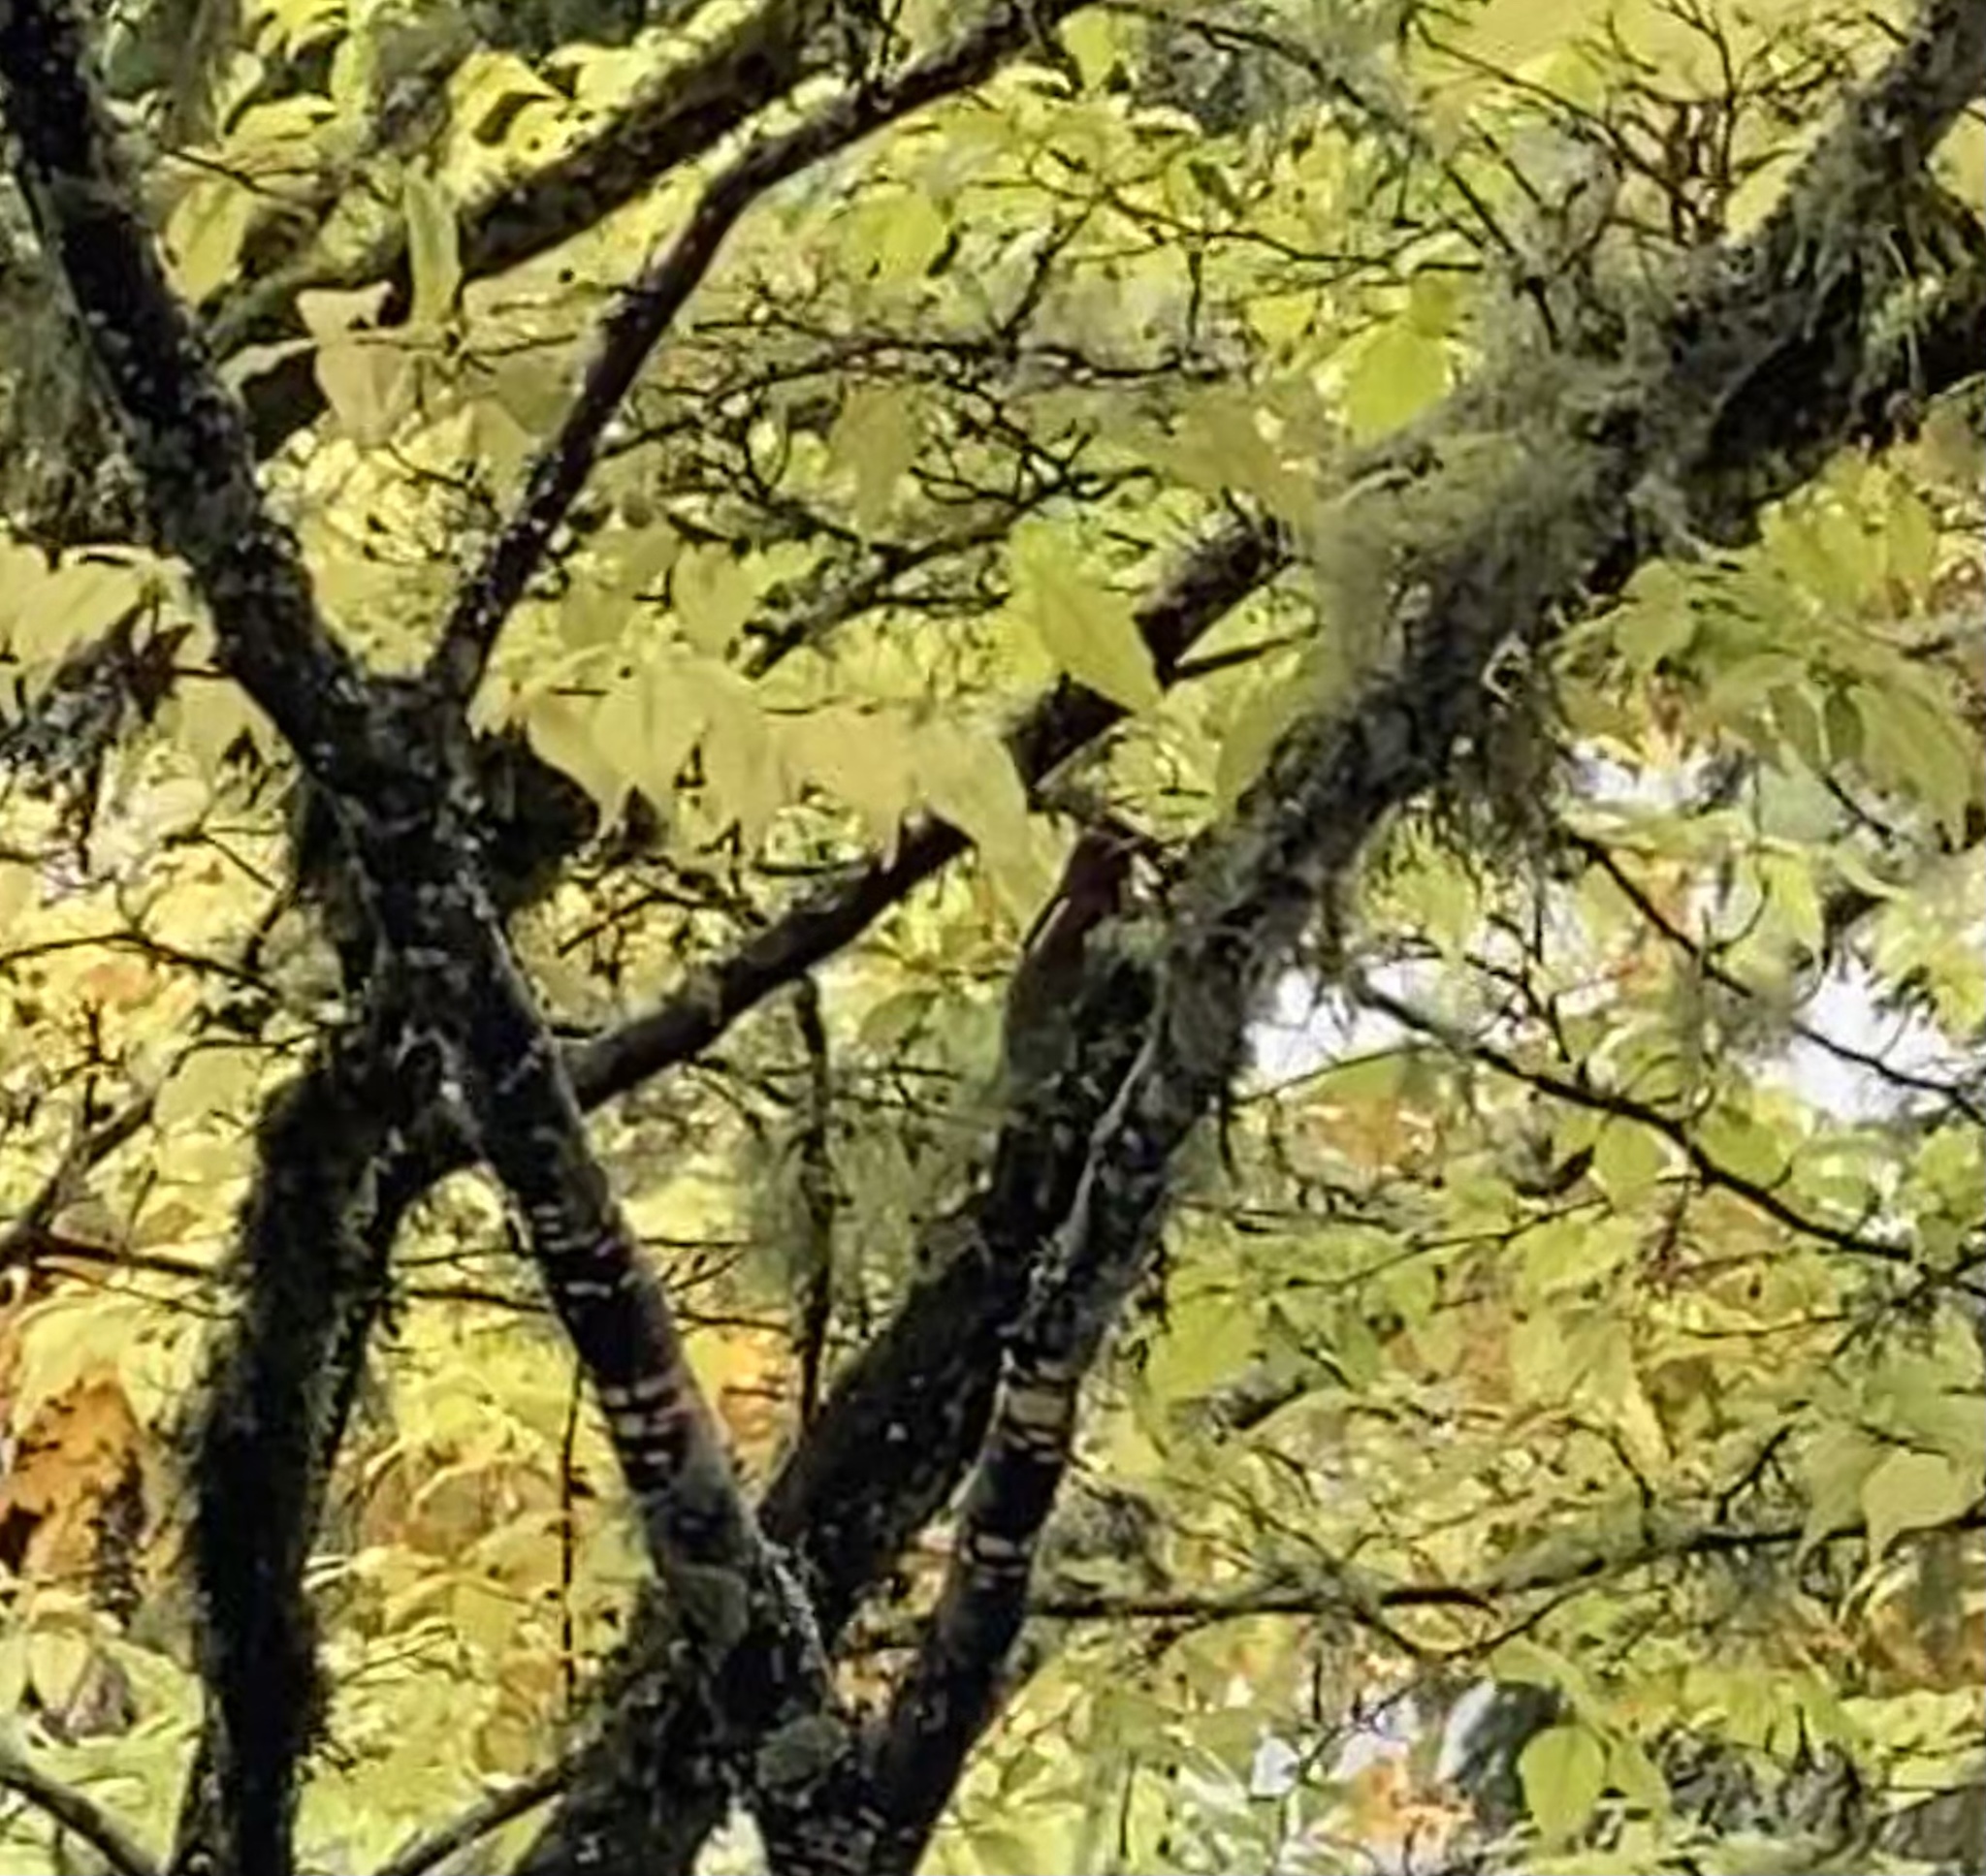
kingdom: Animalia
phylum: Chordata
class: Aves
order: Piciformes
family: Picidae
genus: Sphyrapicus
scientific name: Sphyrapicus ruber
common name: Red-breasted sapsucker
